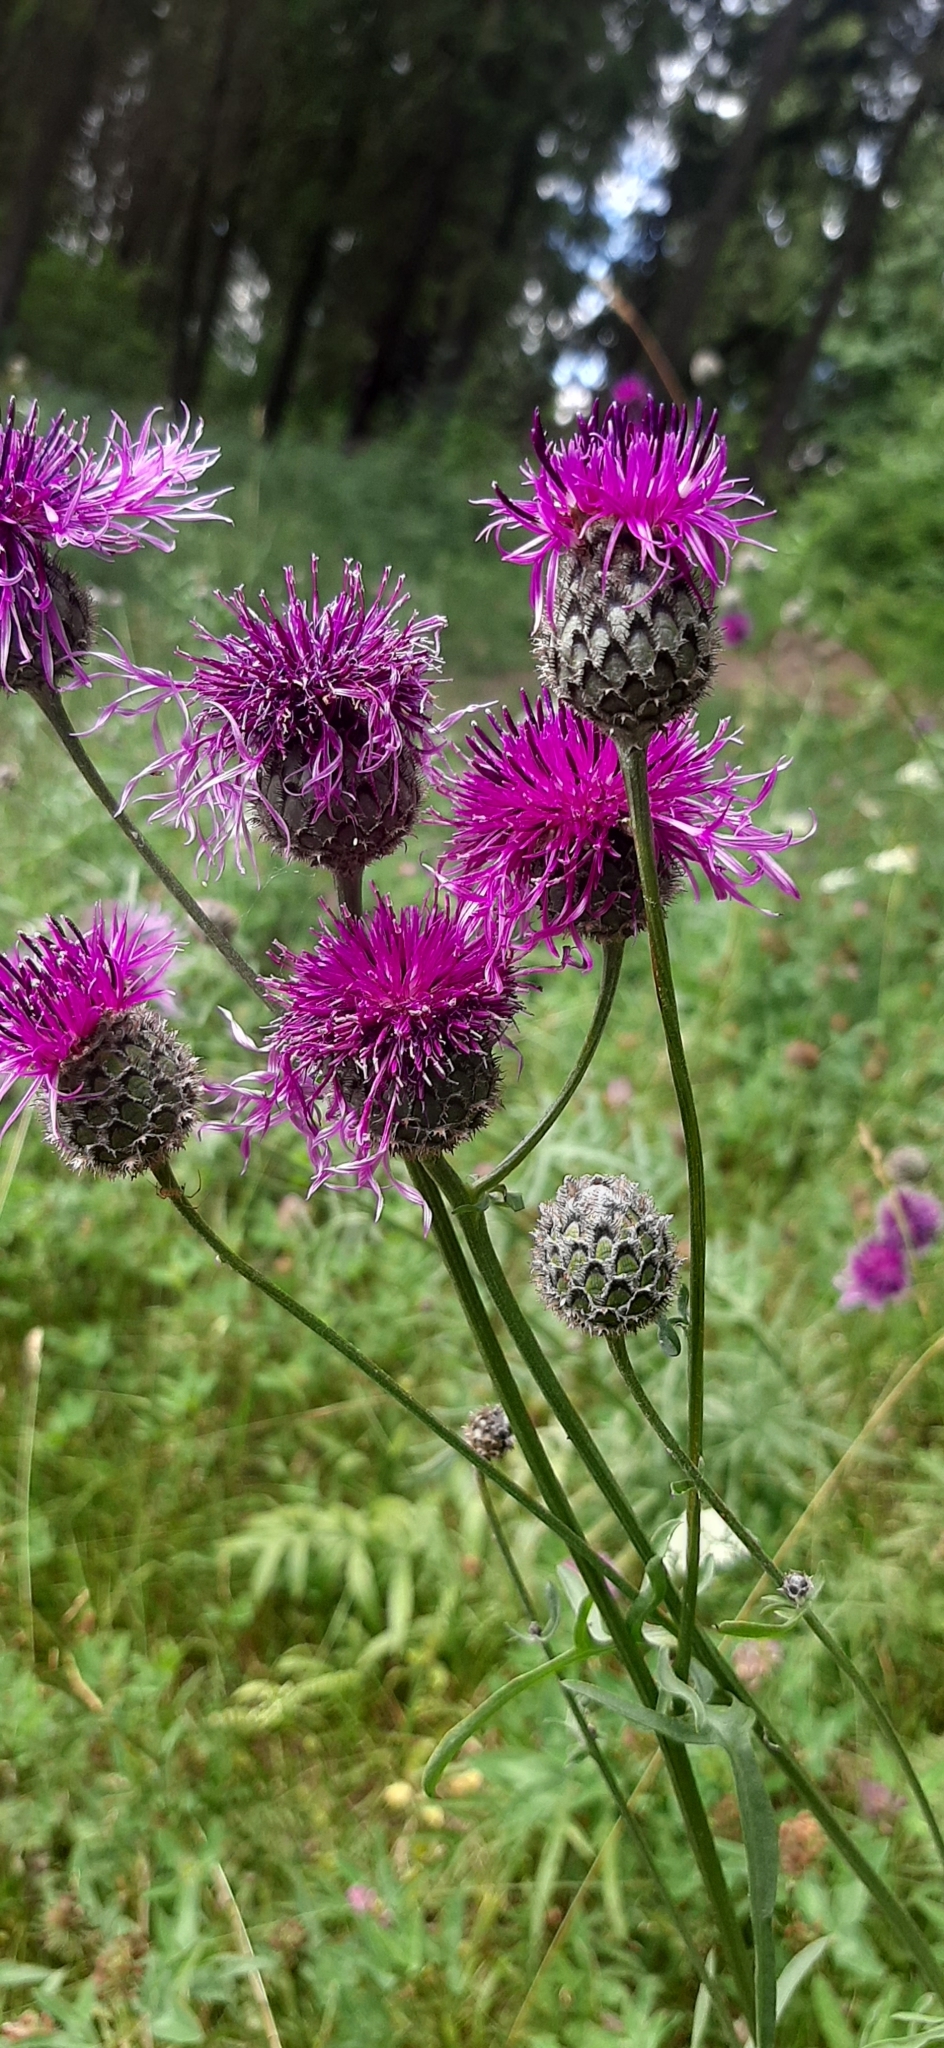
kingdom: Plantae
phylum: Tracheophyta
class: Magnoliopsida
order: Asterales
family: Asteraceae
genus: Centaurea
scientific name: Centaurea scabiosa
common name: Greater knapweed
